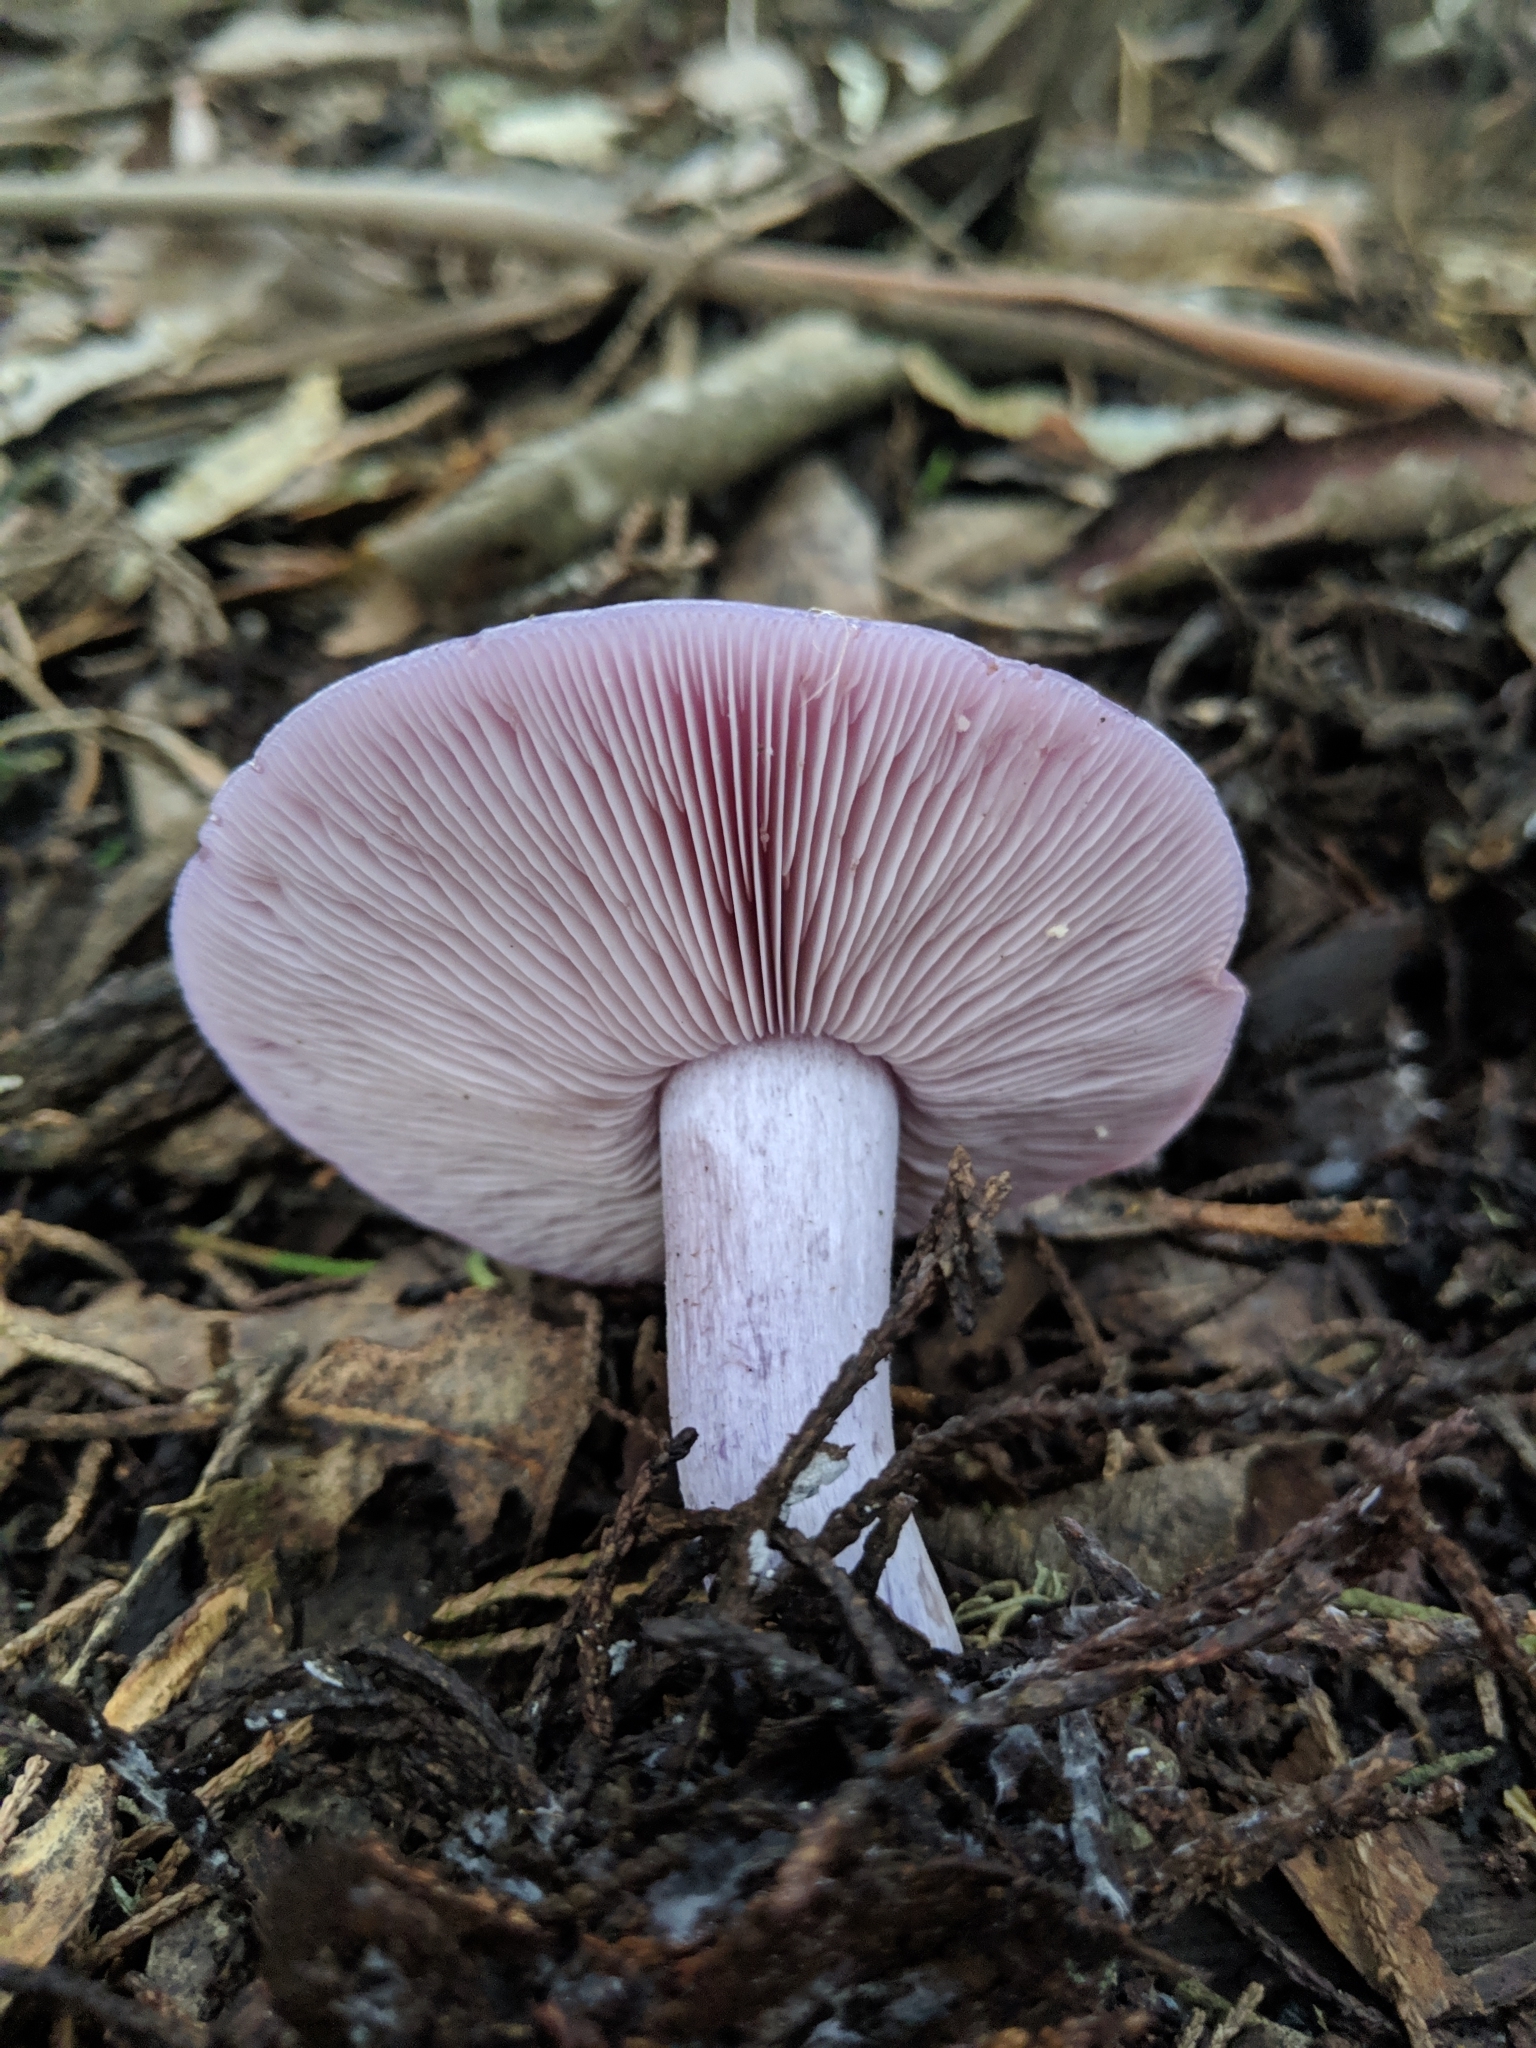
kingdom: Fungi
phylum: Basidiomycota
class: Agaricomycetes
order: Agaricales
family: Tricholomataceae
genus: Collybia
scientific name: Collybia
